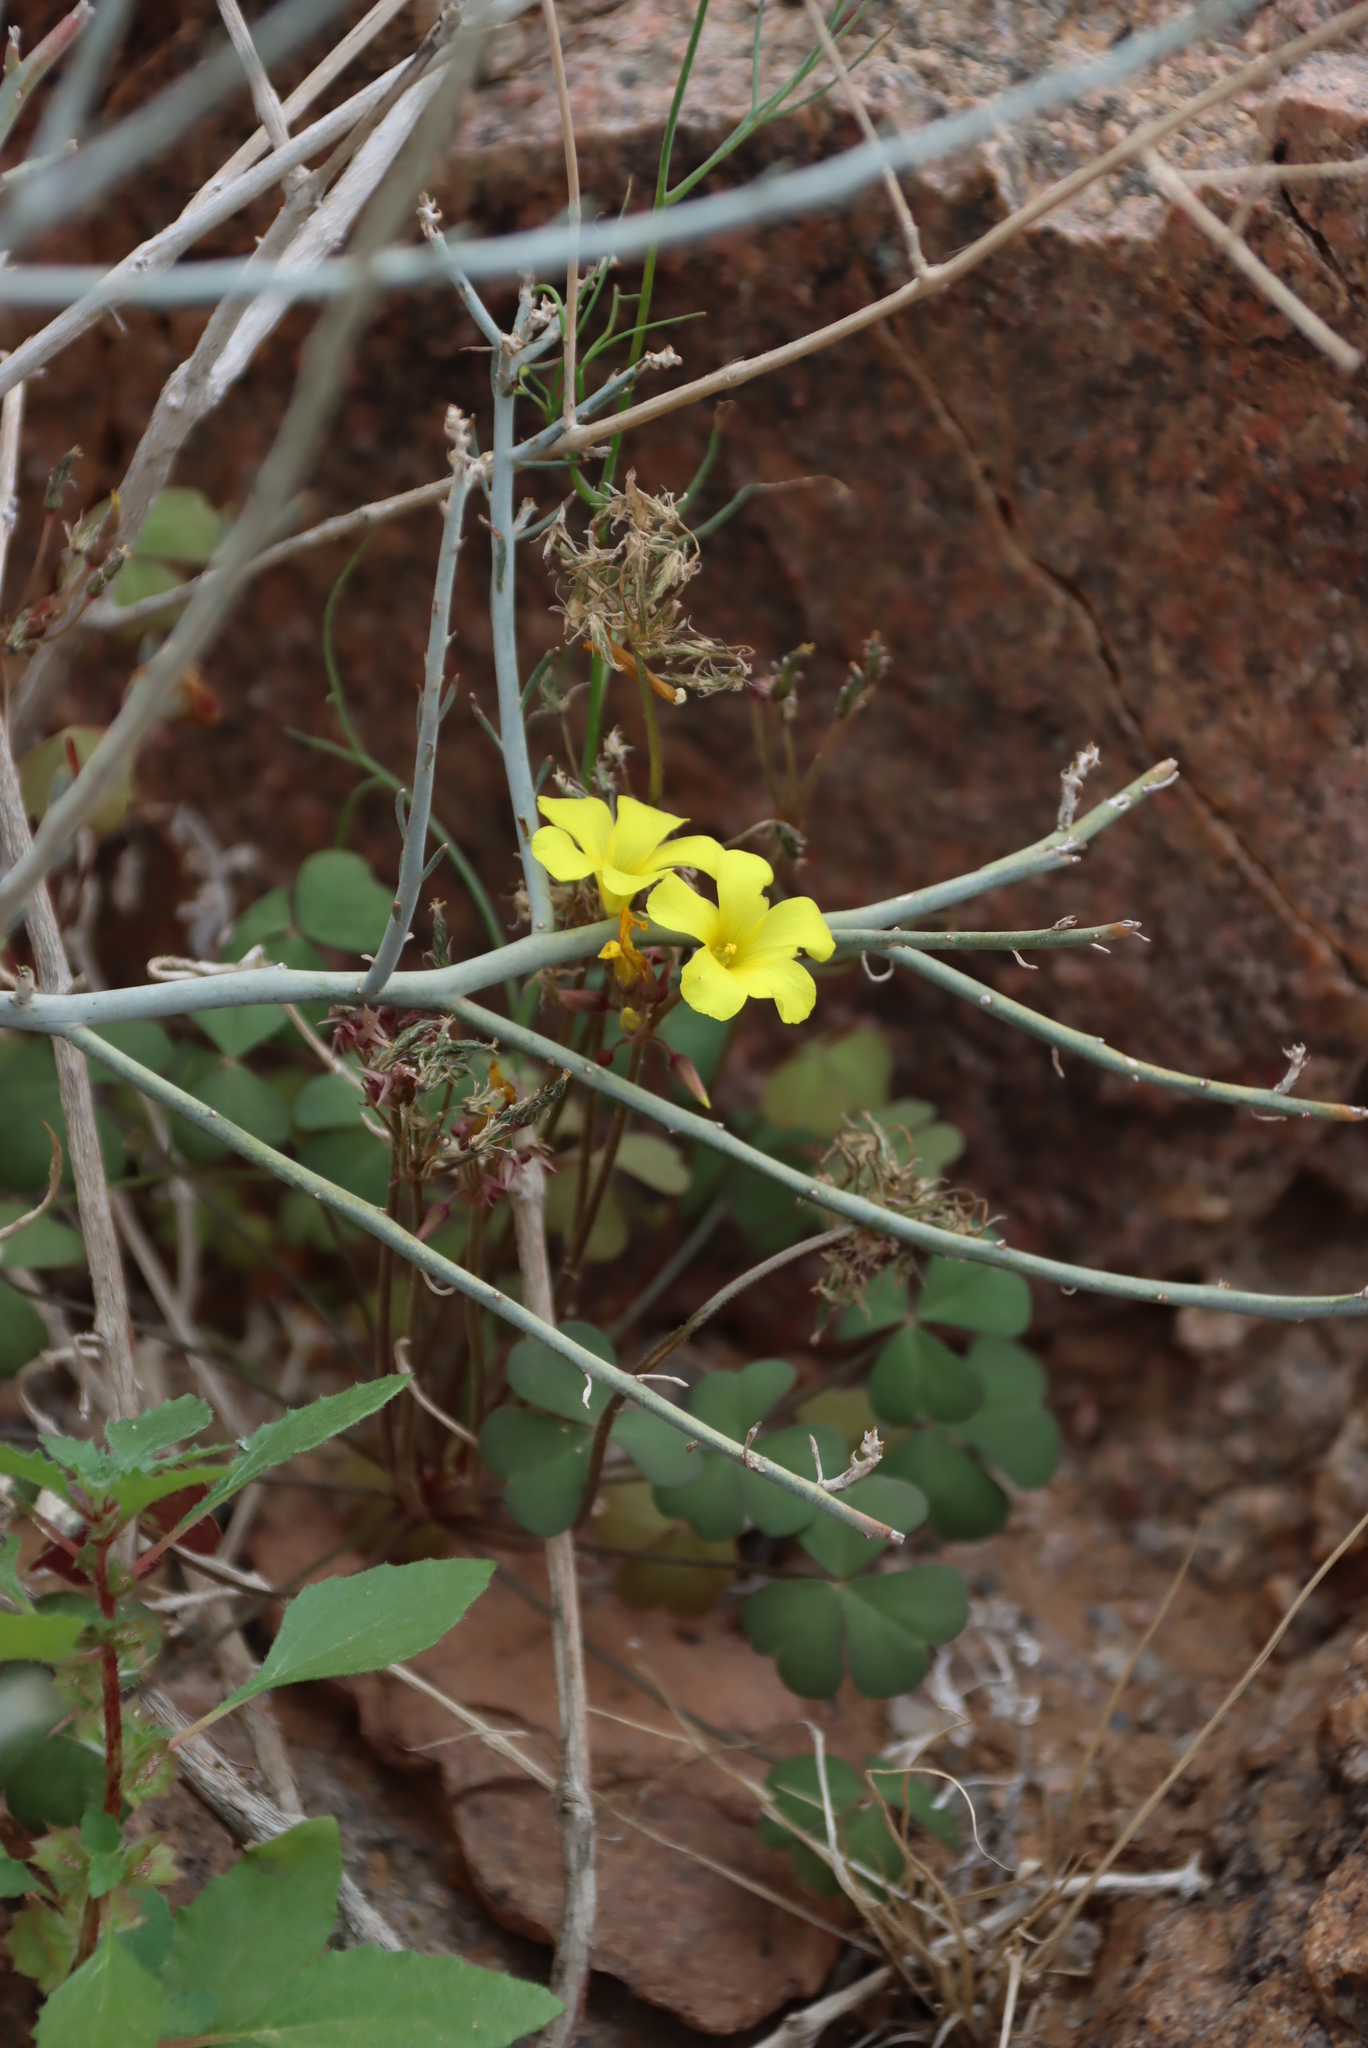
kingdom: Plantae
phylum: Tracheophyta
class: Magnoliopsida
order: Oxalidales
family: Oxalidaceae
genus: Oxalis
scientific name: Oxalis copiosa
